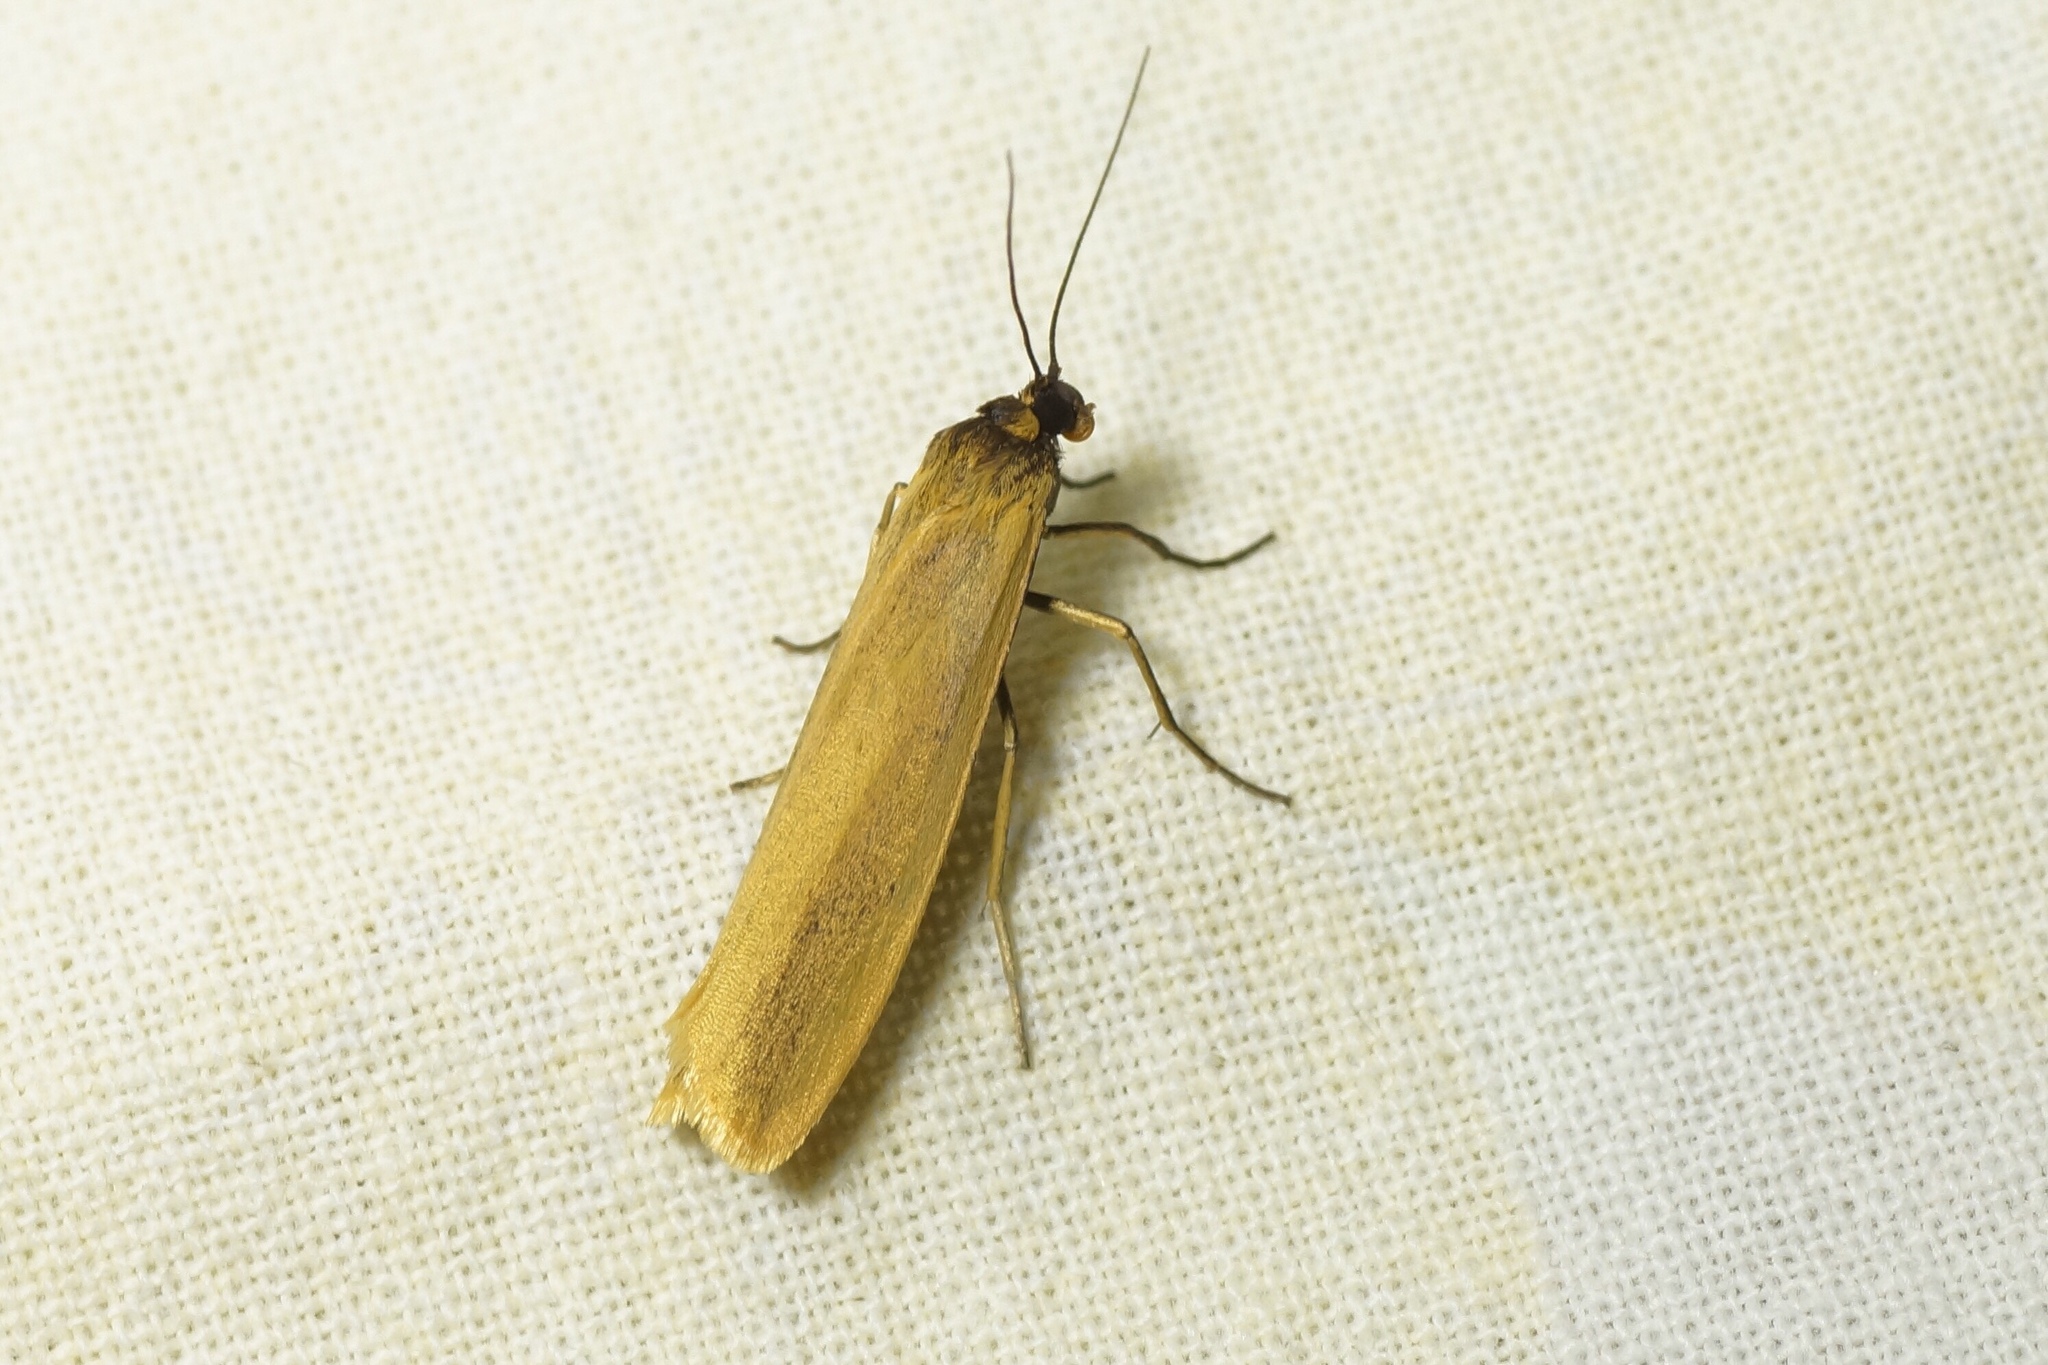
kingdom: Animalia
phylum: Arthropoda
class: Insecta
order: Lepidoptera
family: Erebidae
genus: Indalia
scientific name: Indalia lutarella
